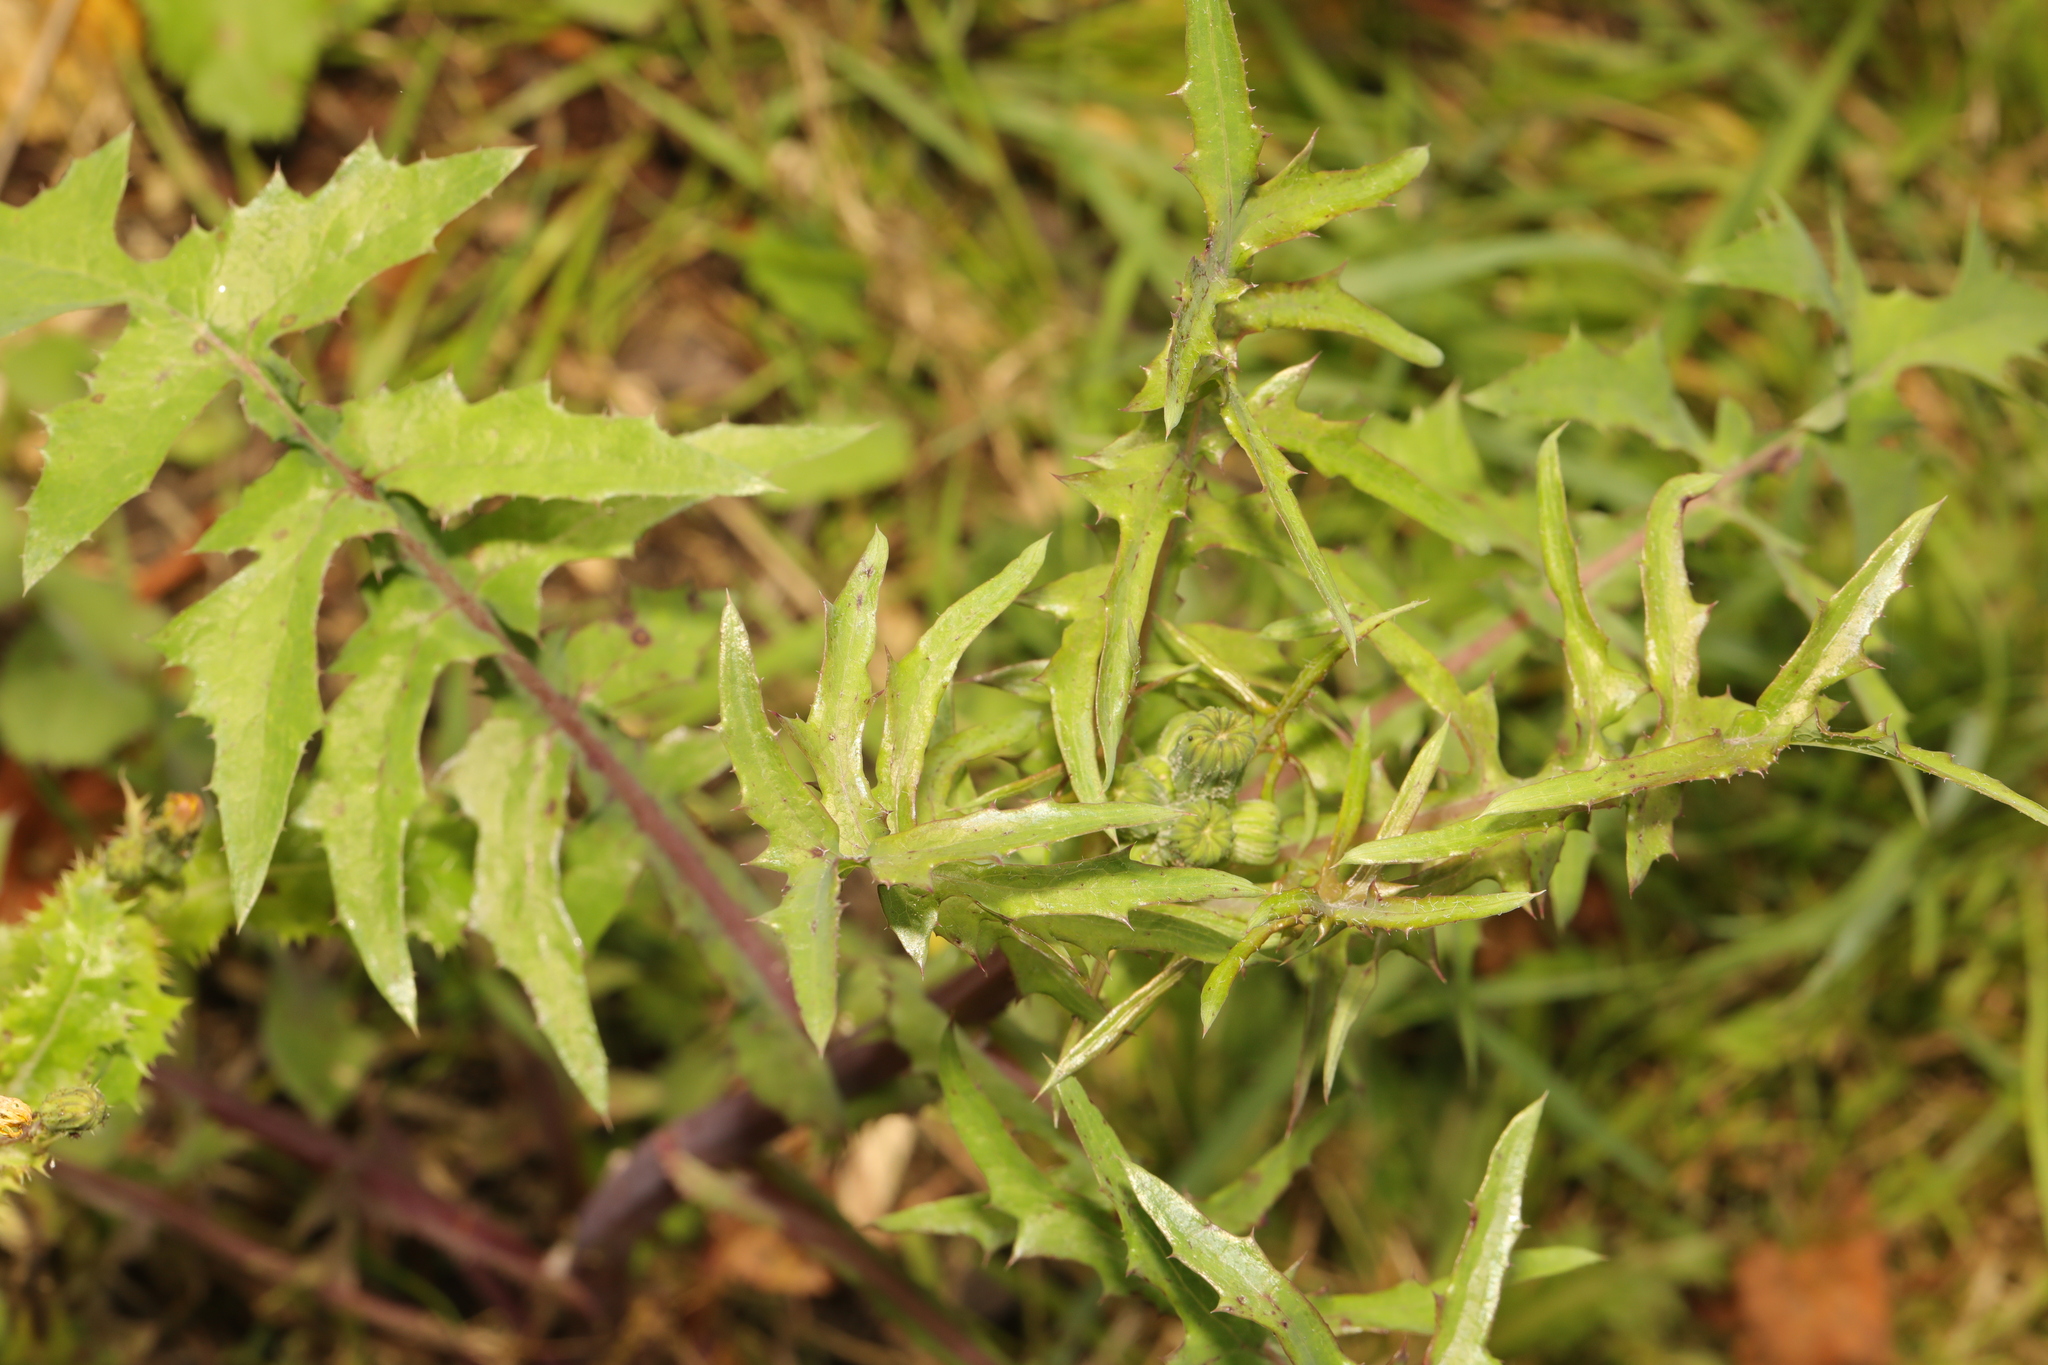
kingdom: Plantae
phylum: Tracheophyta
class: Magnoliopsida
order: Asterales
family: Asteraceae
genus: Sonchus
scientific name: Sonchus oleraceus
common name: Common sowthistle
